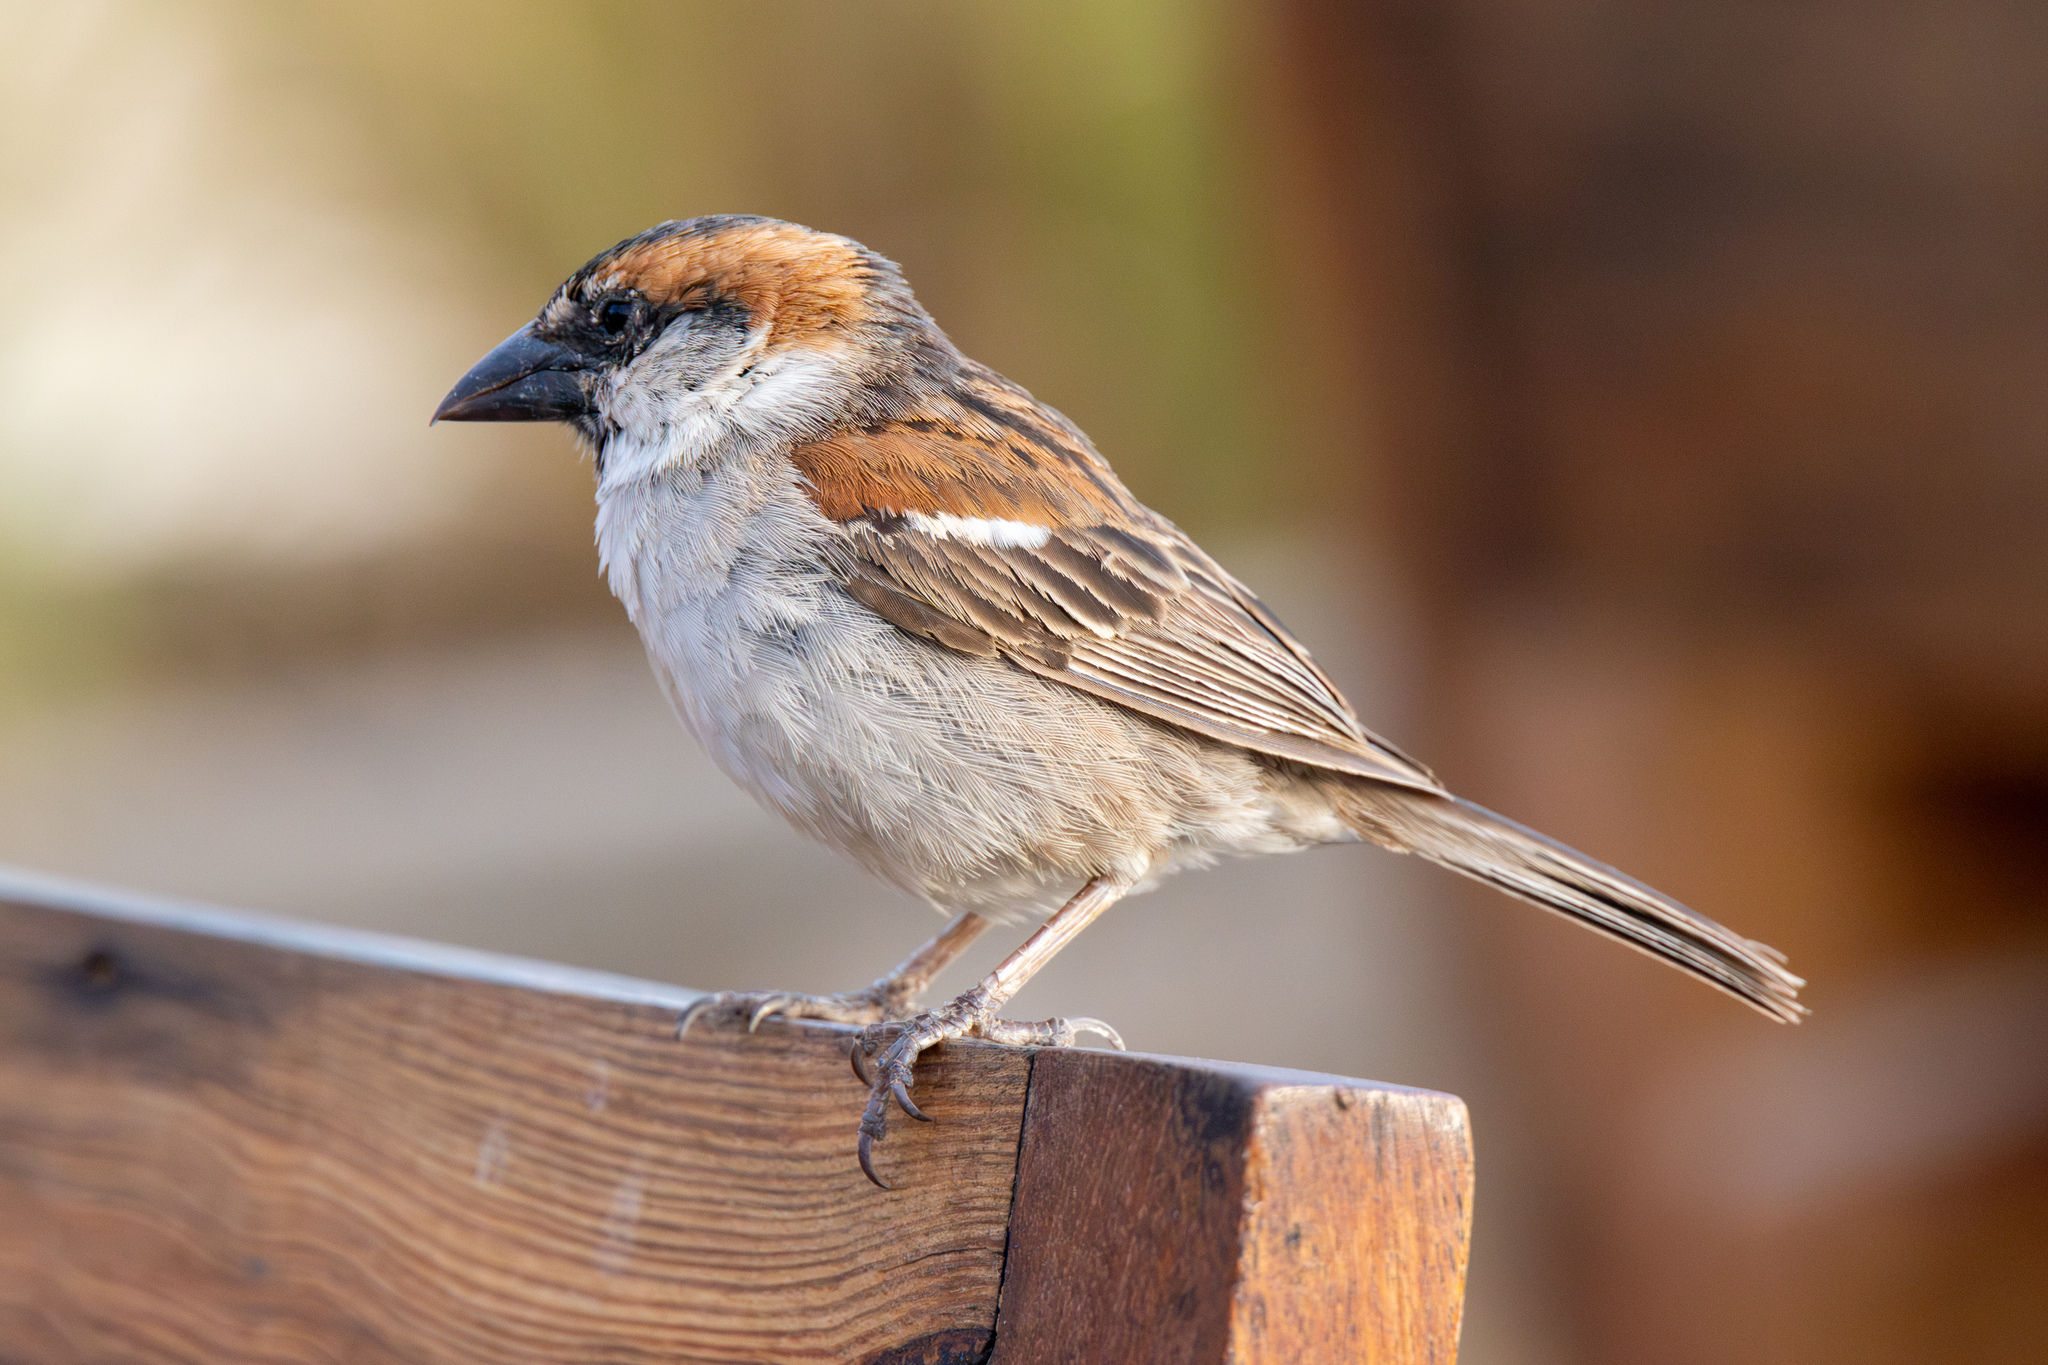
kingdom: Animalia
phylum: Chordata
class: Aves
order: Passeriformes
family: Passeridae
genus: Passer
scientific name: Passer iagoensis
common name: Iago sparrow
